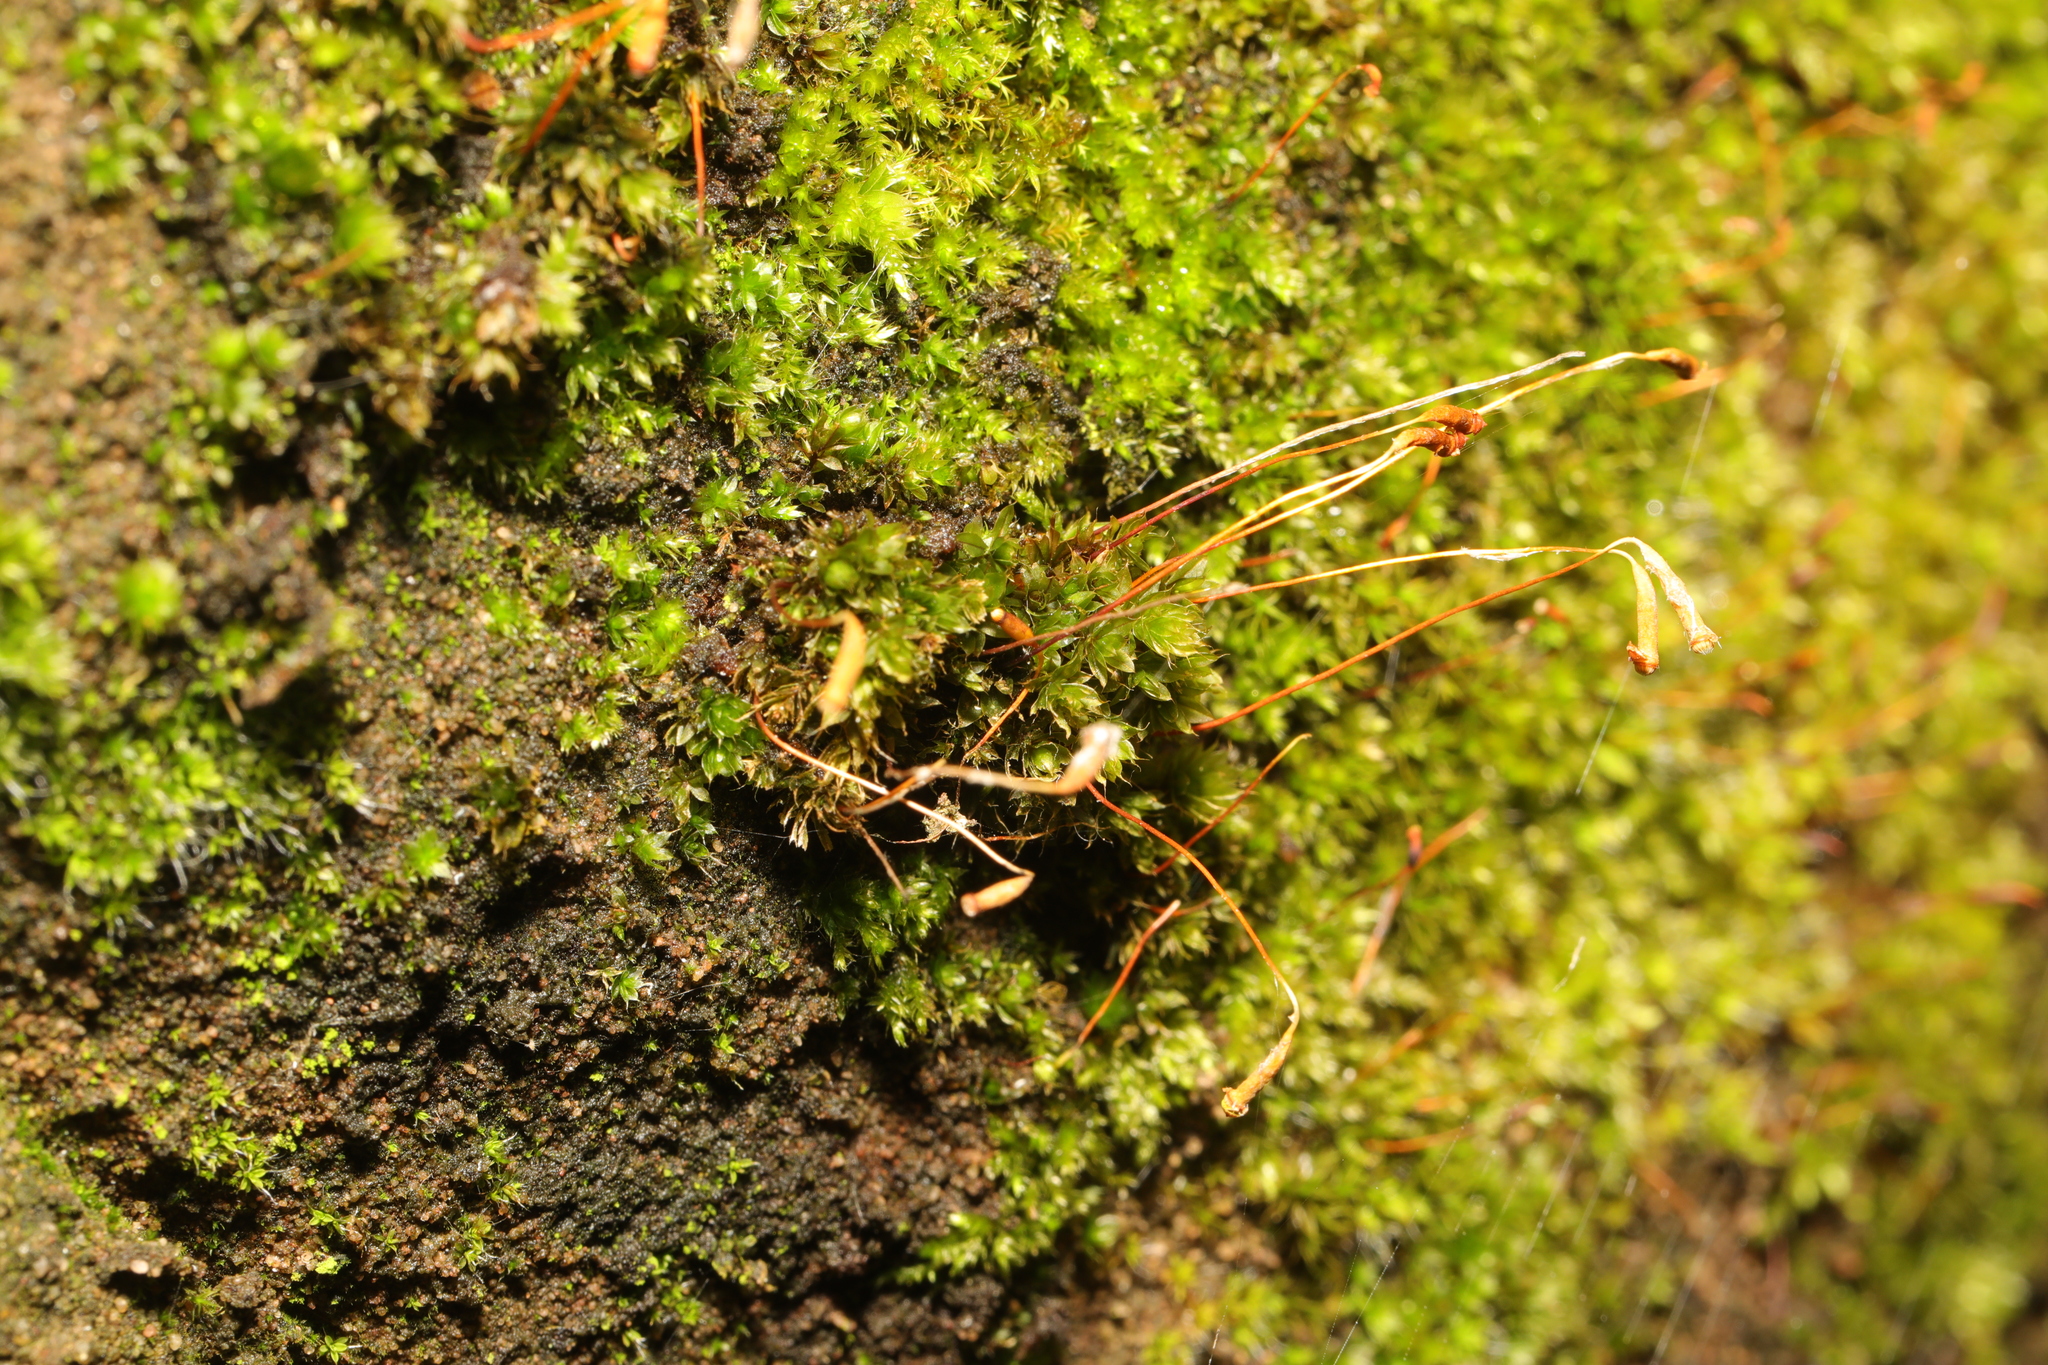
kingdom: Plantae
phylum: Bryophyta
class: Bryopsida
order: Bryales
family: Bryaceae
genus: Rosulabryum
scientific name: Rosulabryum capillare
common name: Capillary thread-moss
